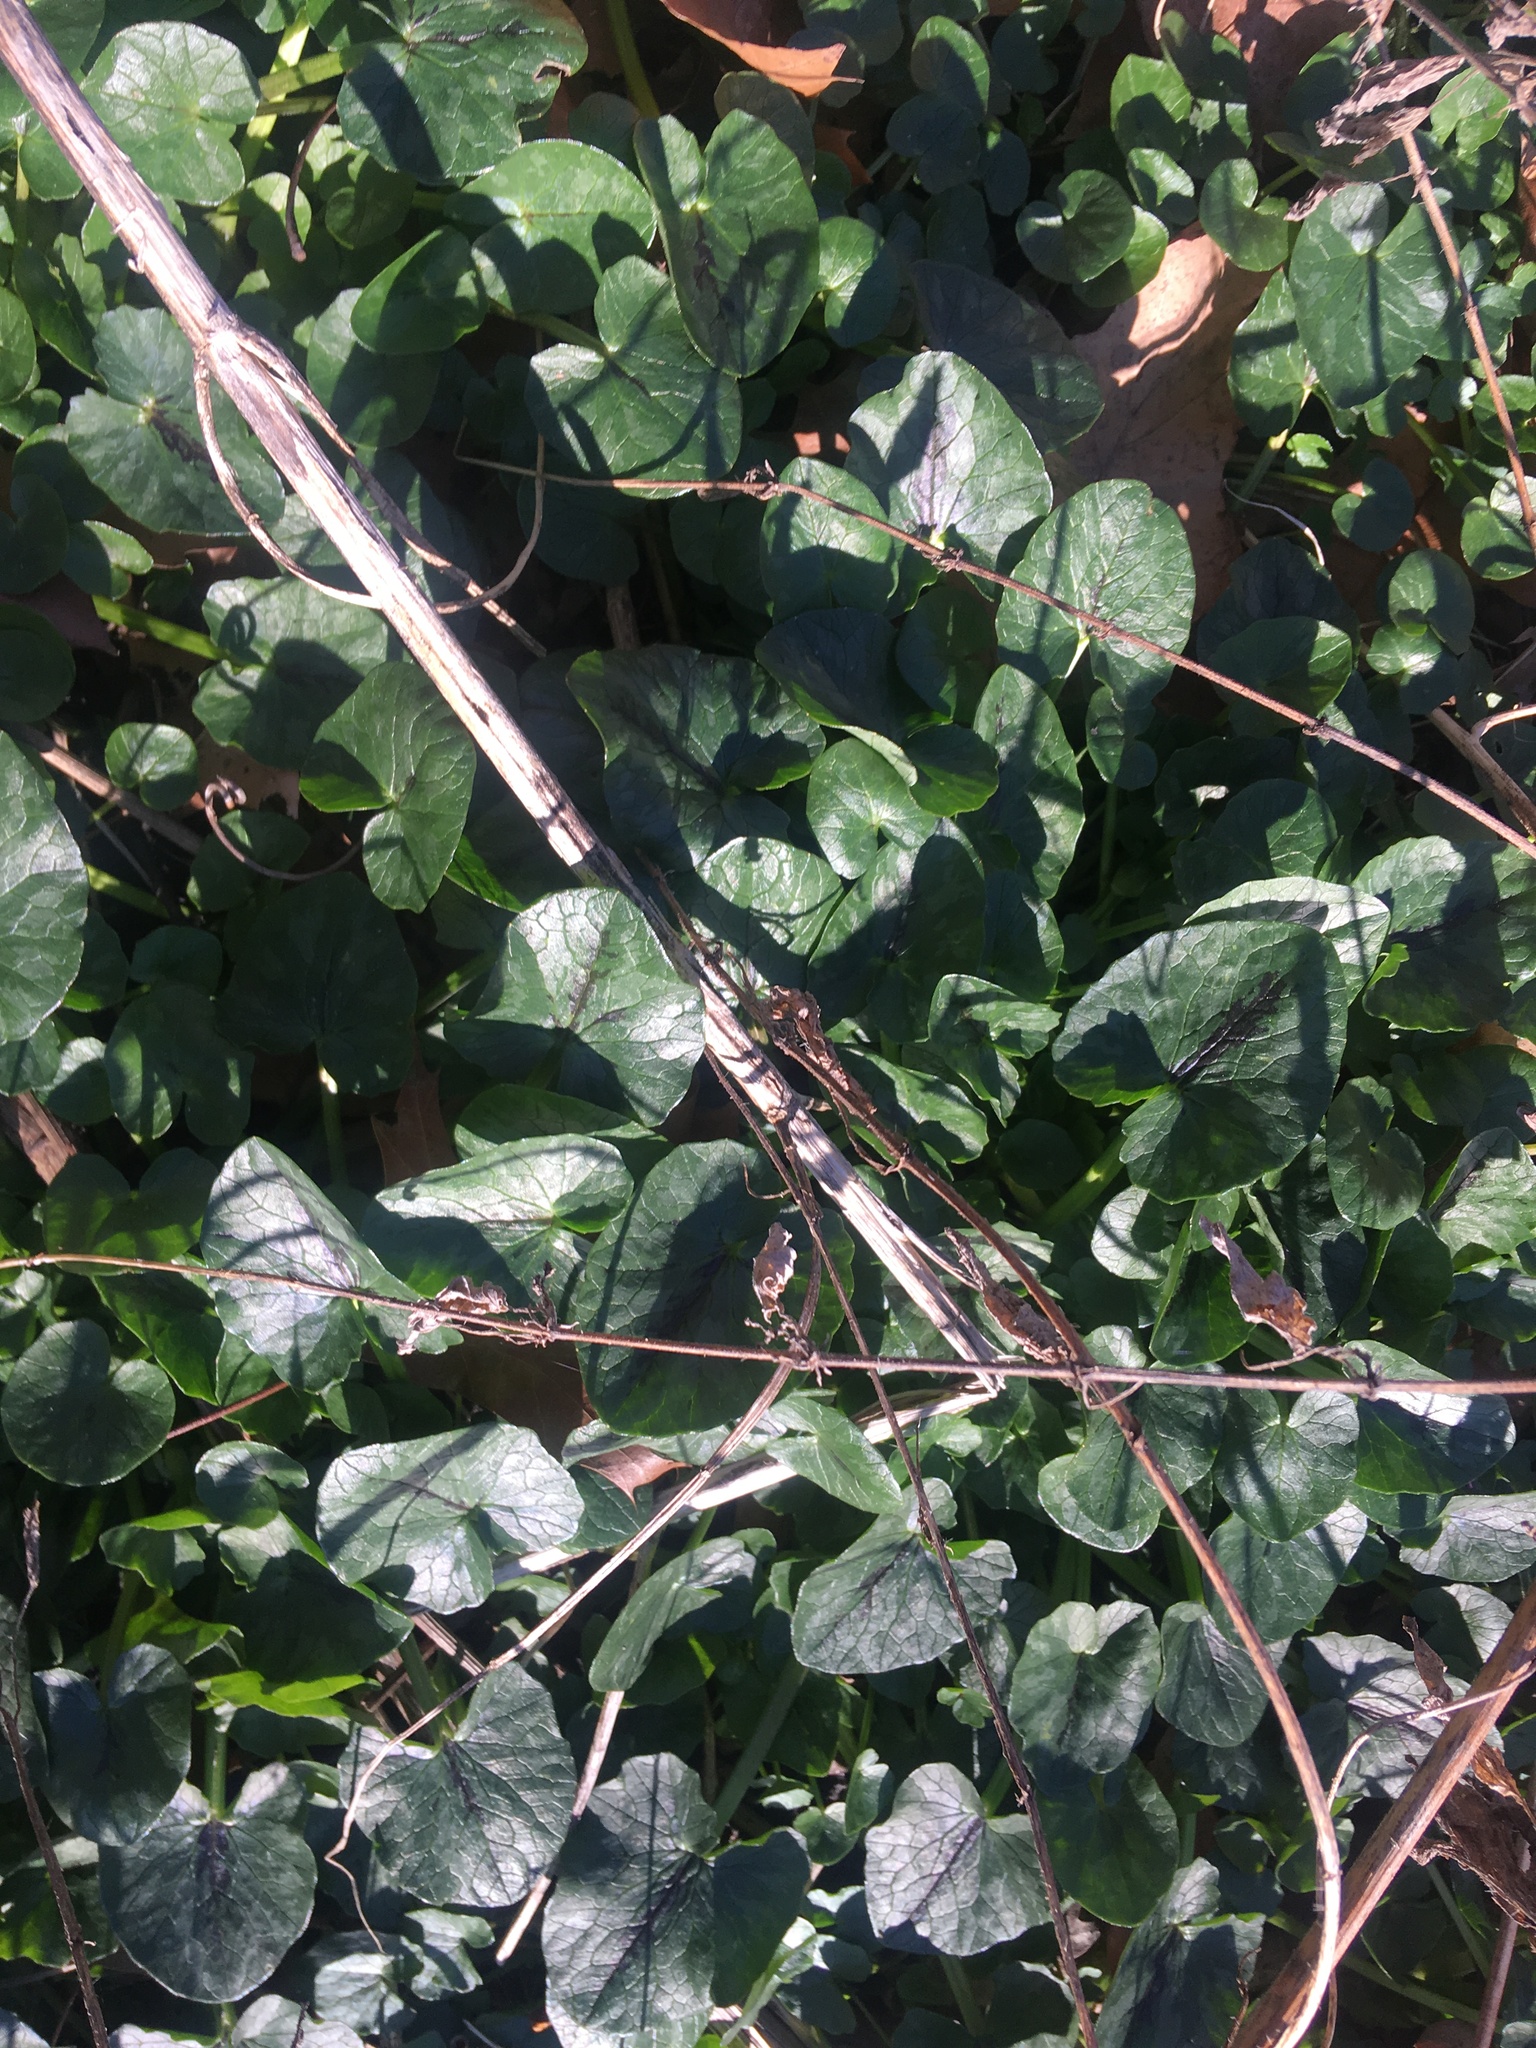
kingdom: Plantae
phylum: Tracheophyta
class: Magnoliopsida
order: Ranunculales
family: Ranunculaceae
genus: Ficaria
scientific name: Ficaria verna
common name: Lesser celandine
